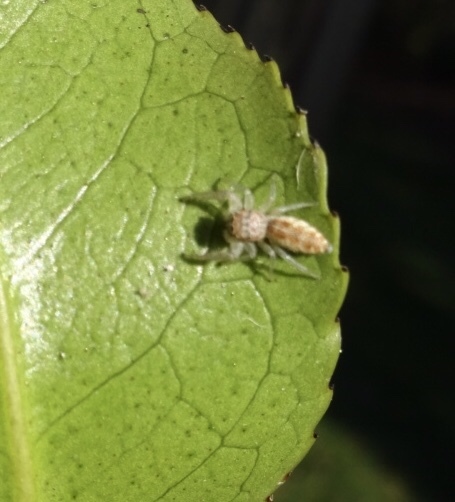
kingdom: Animalia
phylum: Arthropoda
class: Arachnida
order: Araneae
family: Salticidae
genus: Hentzia
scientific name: Hentzia mitrata
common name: White-jawed jumping spider
